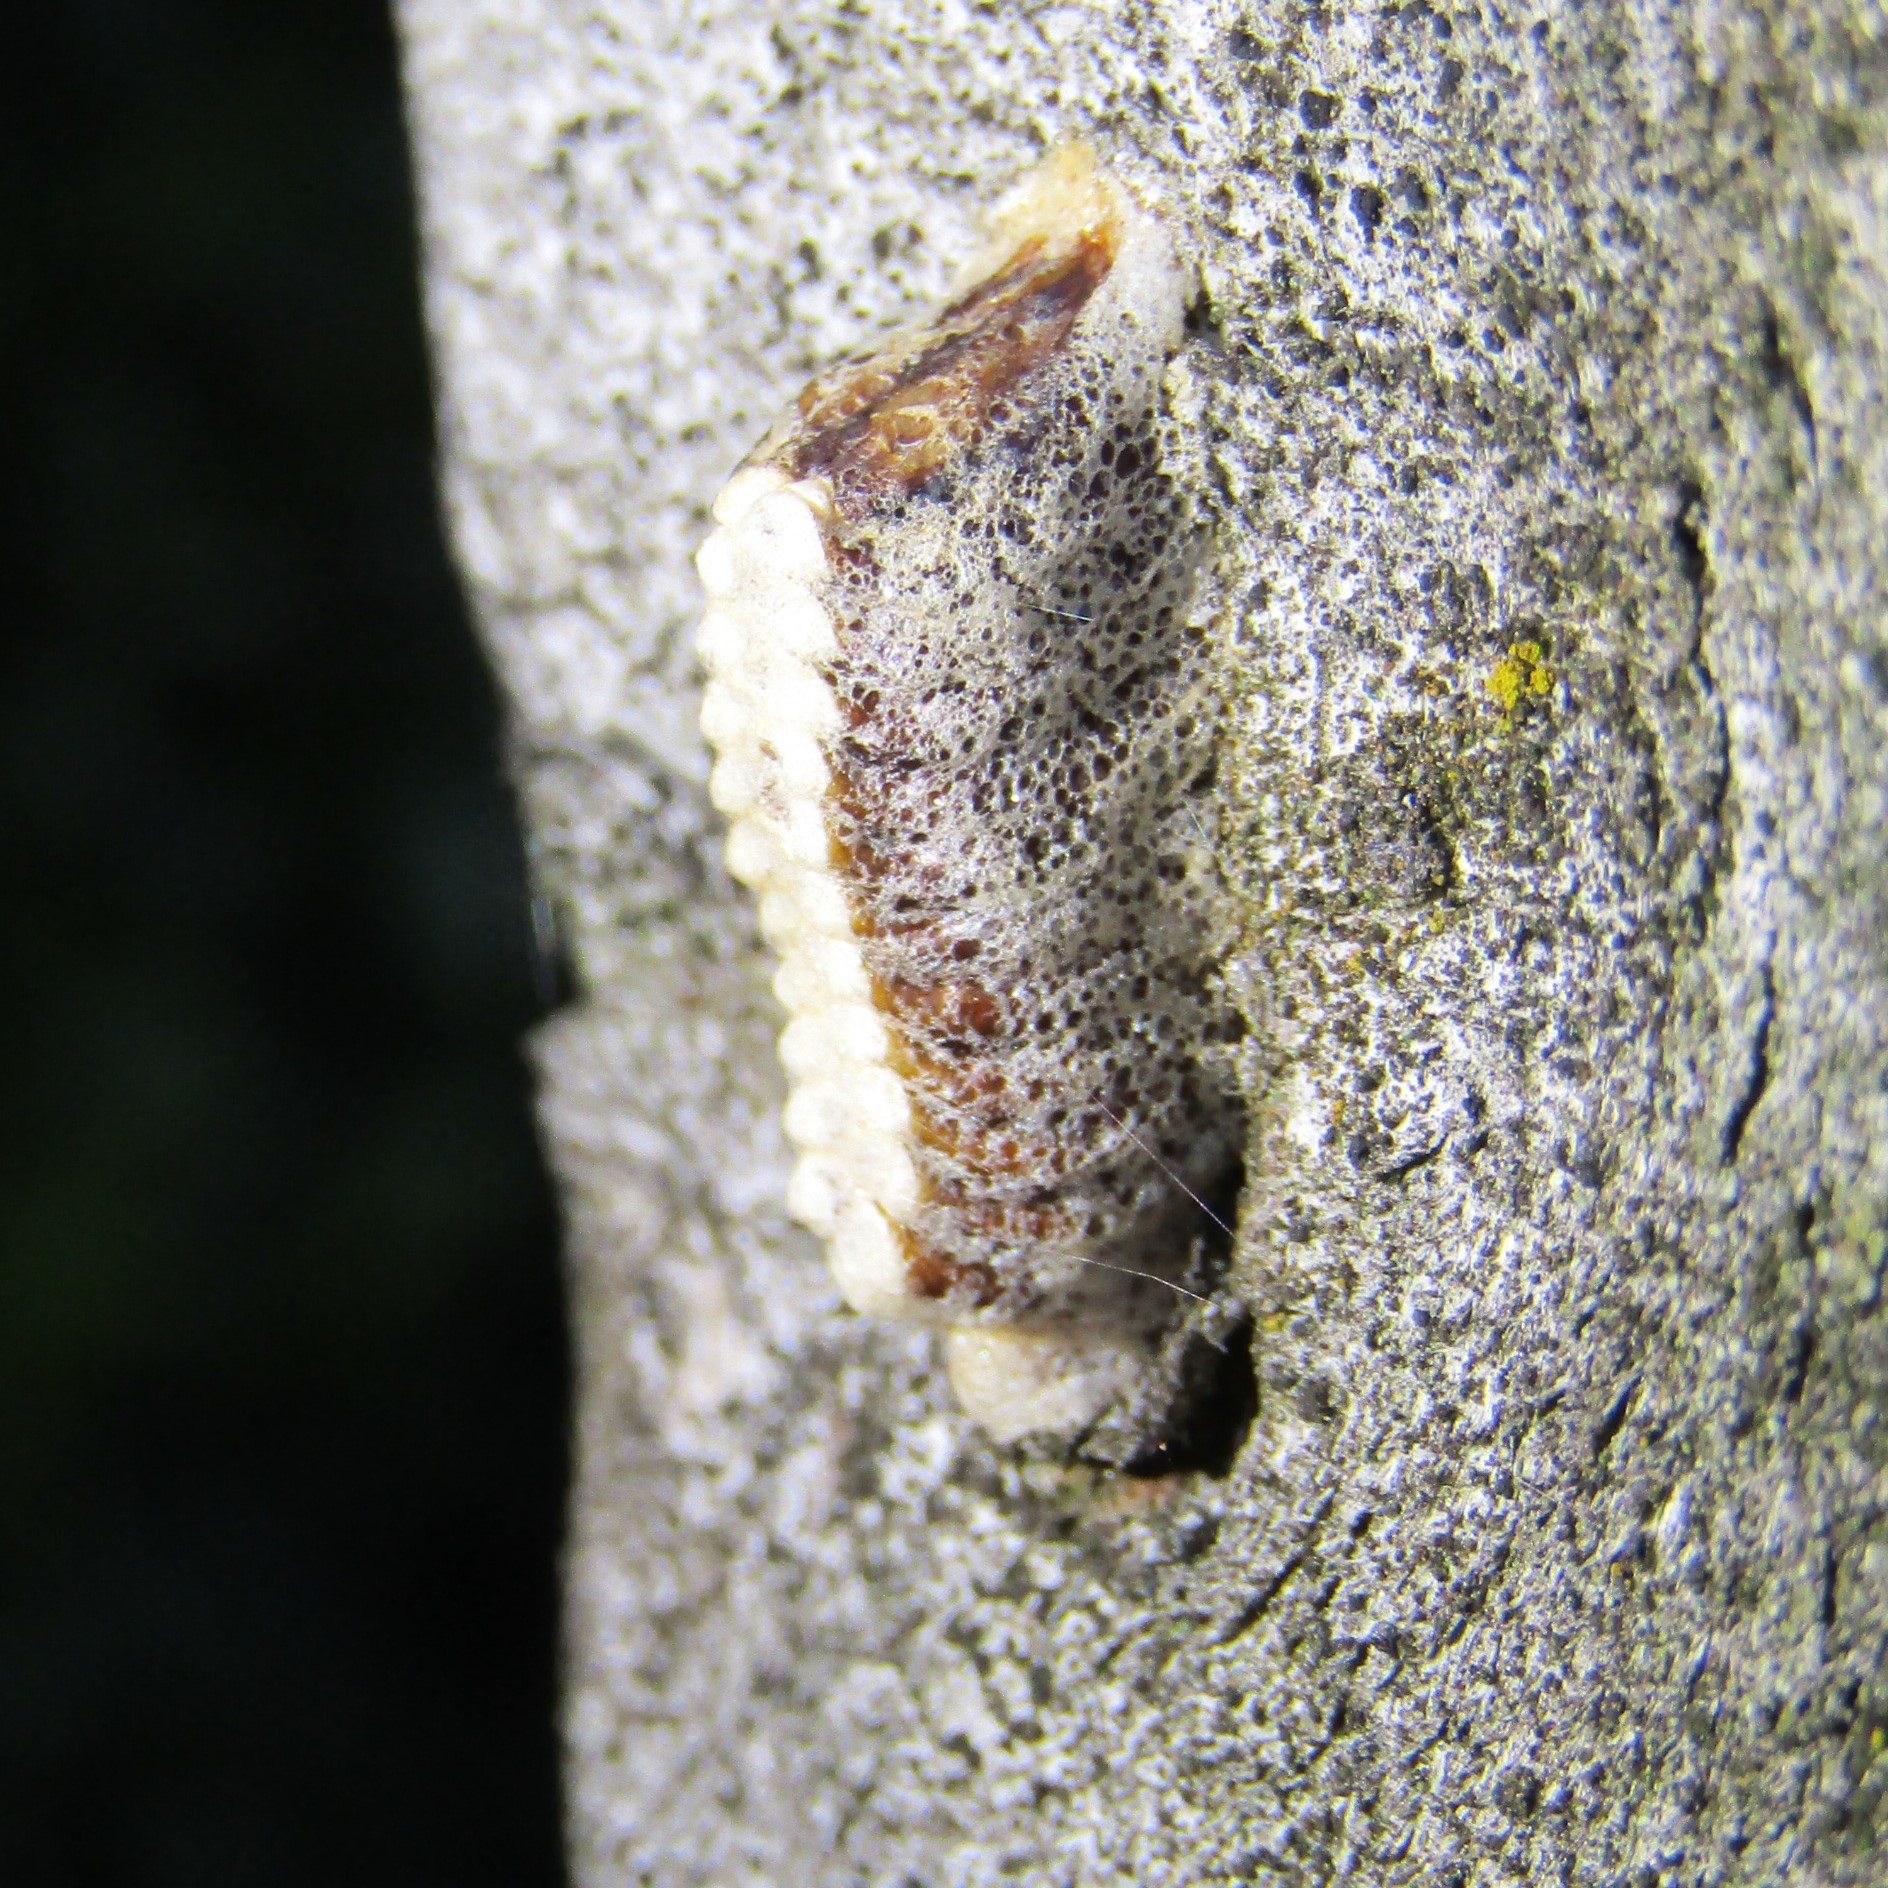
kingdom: Animalia
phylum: Arthropoda
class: Insecta
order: Mantodea
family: Mantidae
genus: Orthodera
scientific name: Orthodera novaezealandiae
